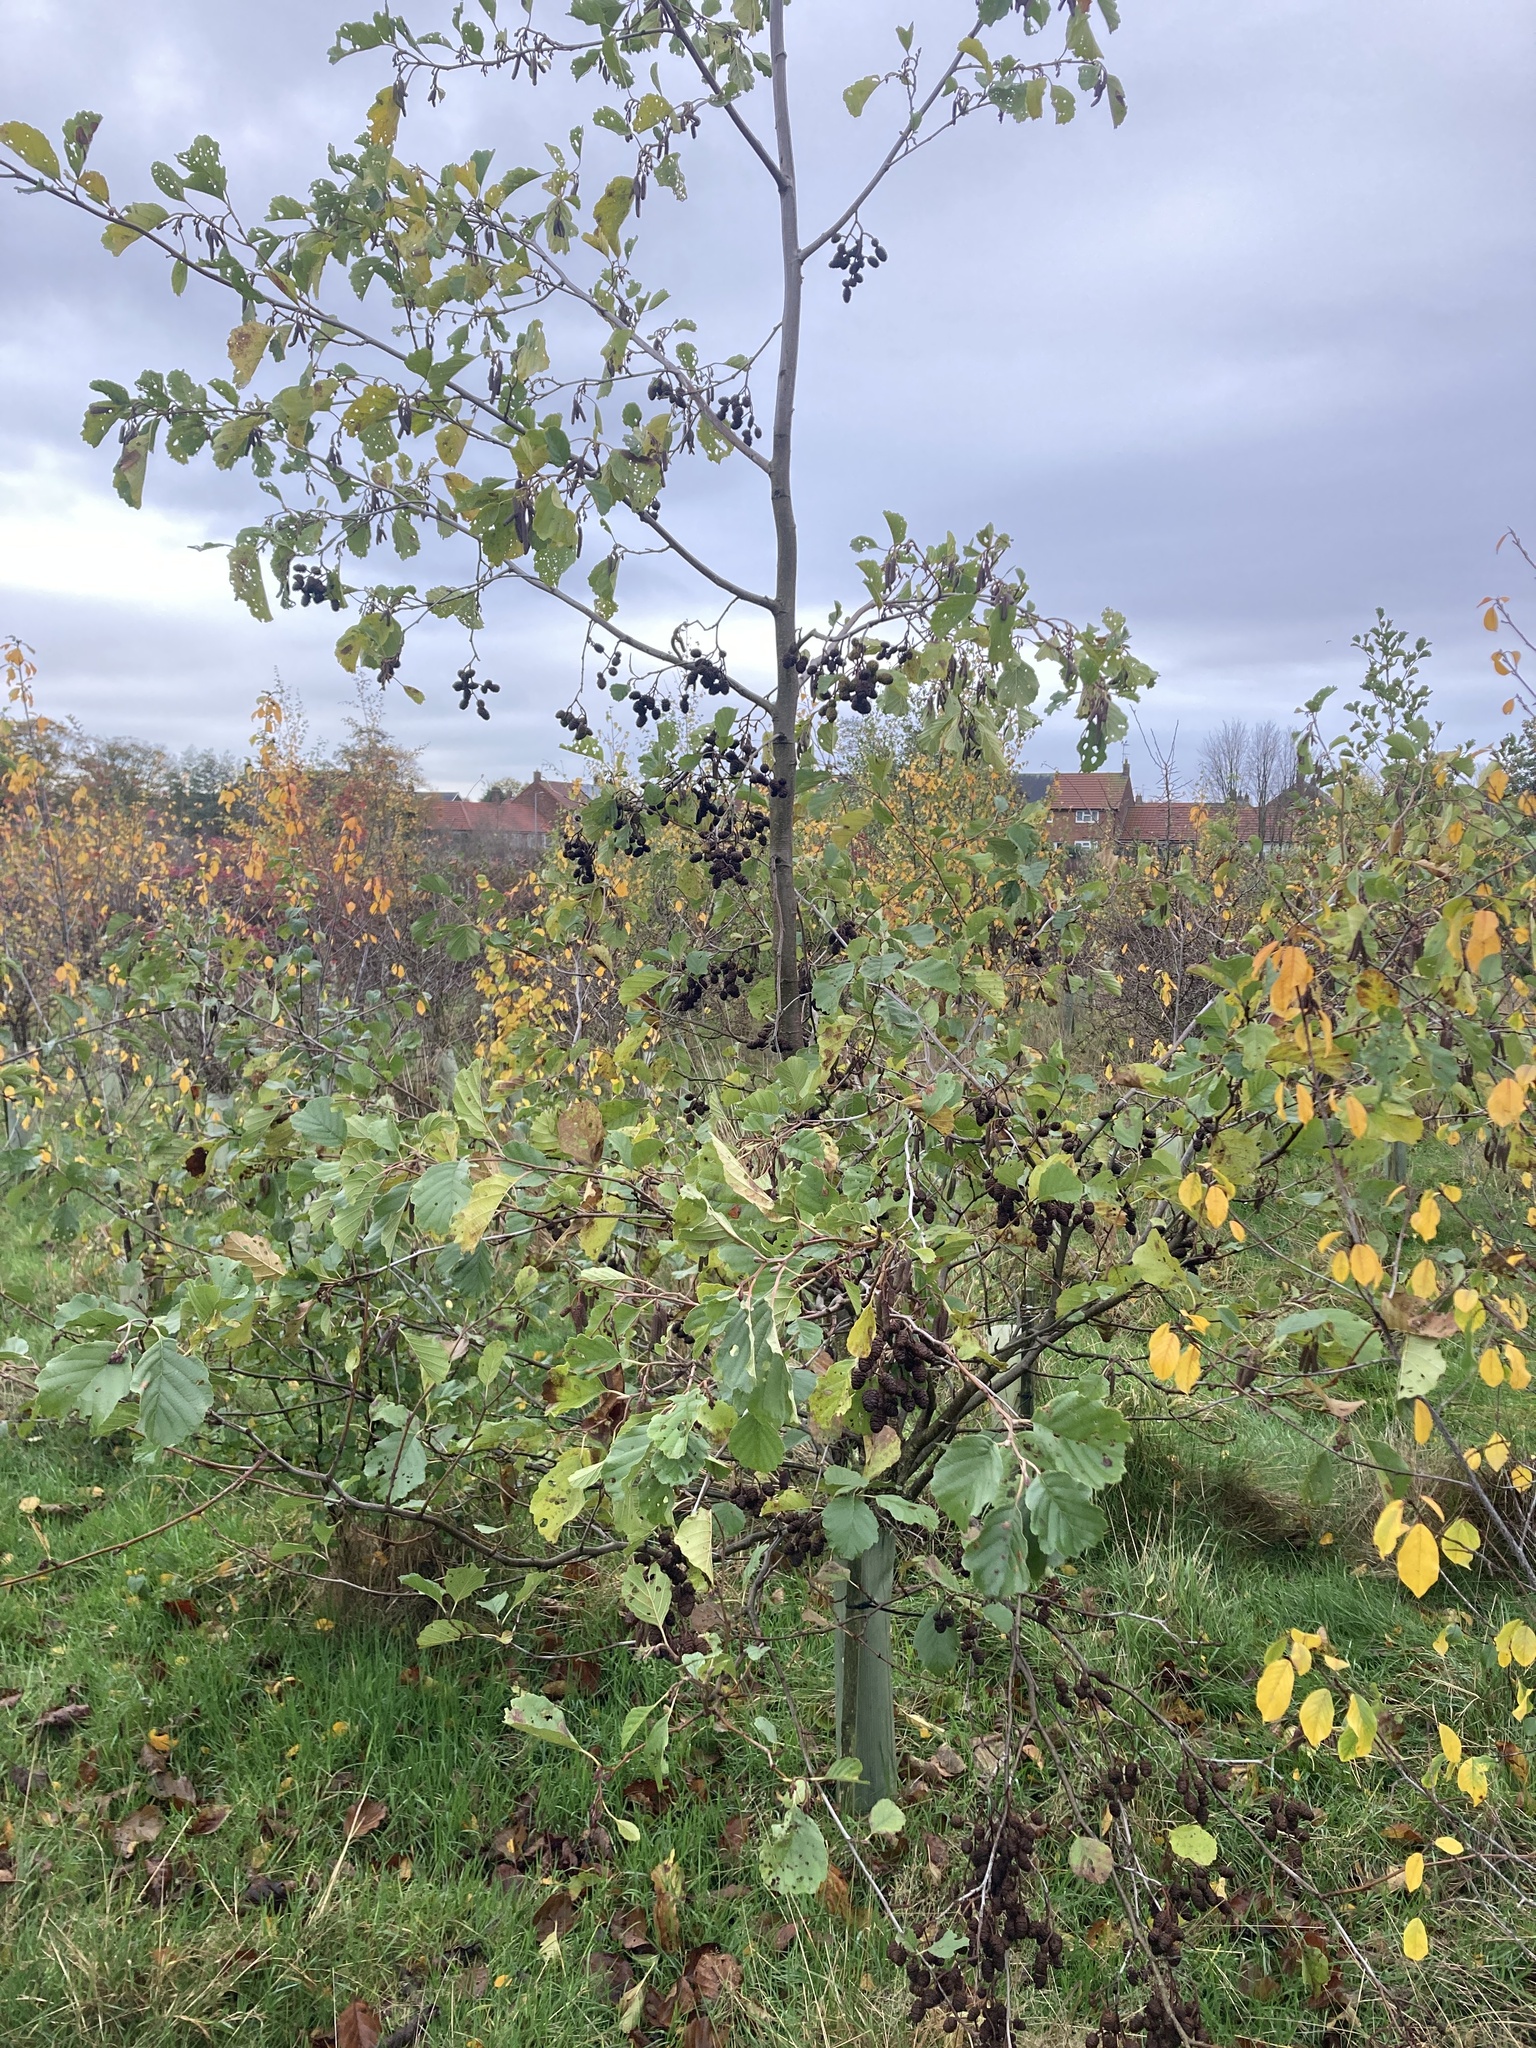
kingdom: Plantae
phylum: Tracheophyta
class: Magnoliopsida
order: Fagales
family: Betulaceae
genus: Alnus
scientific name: Alnus glutinosa
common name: Black alder
